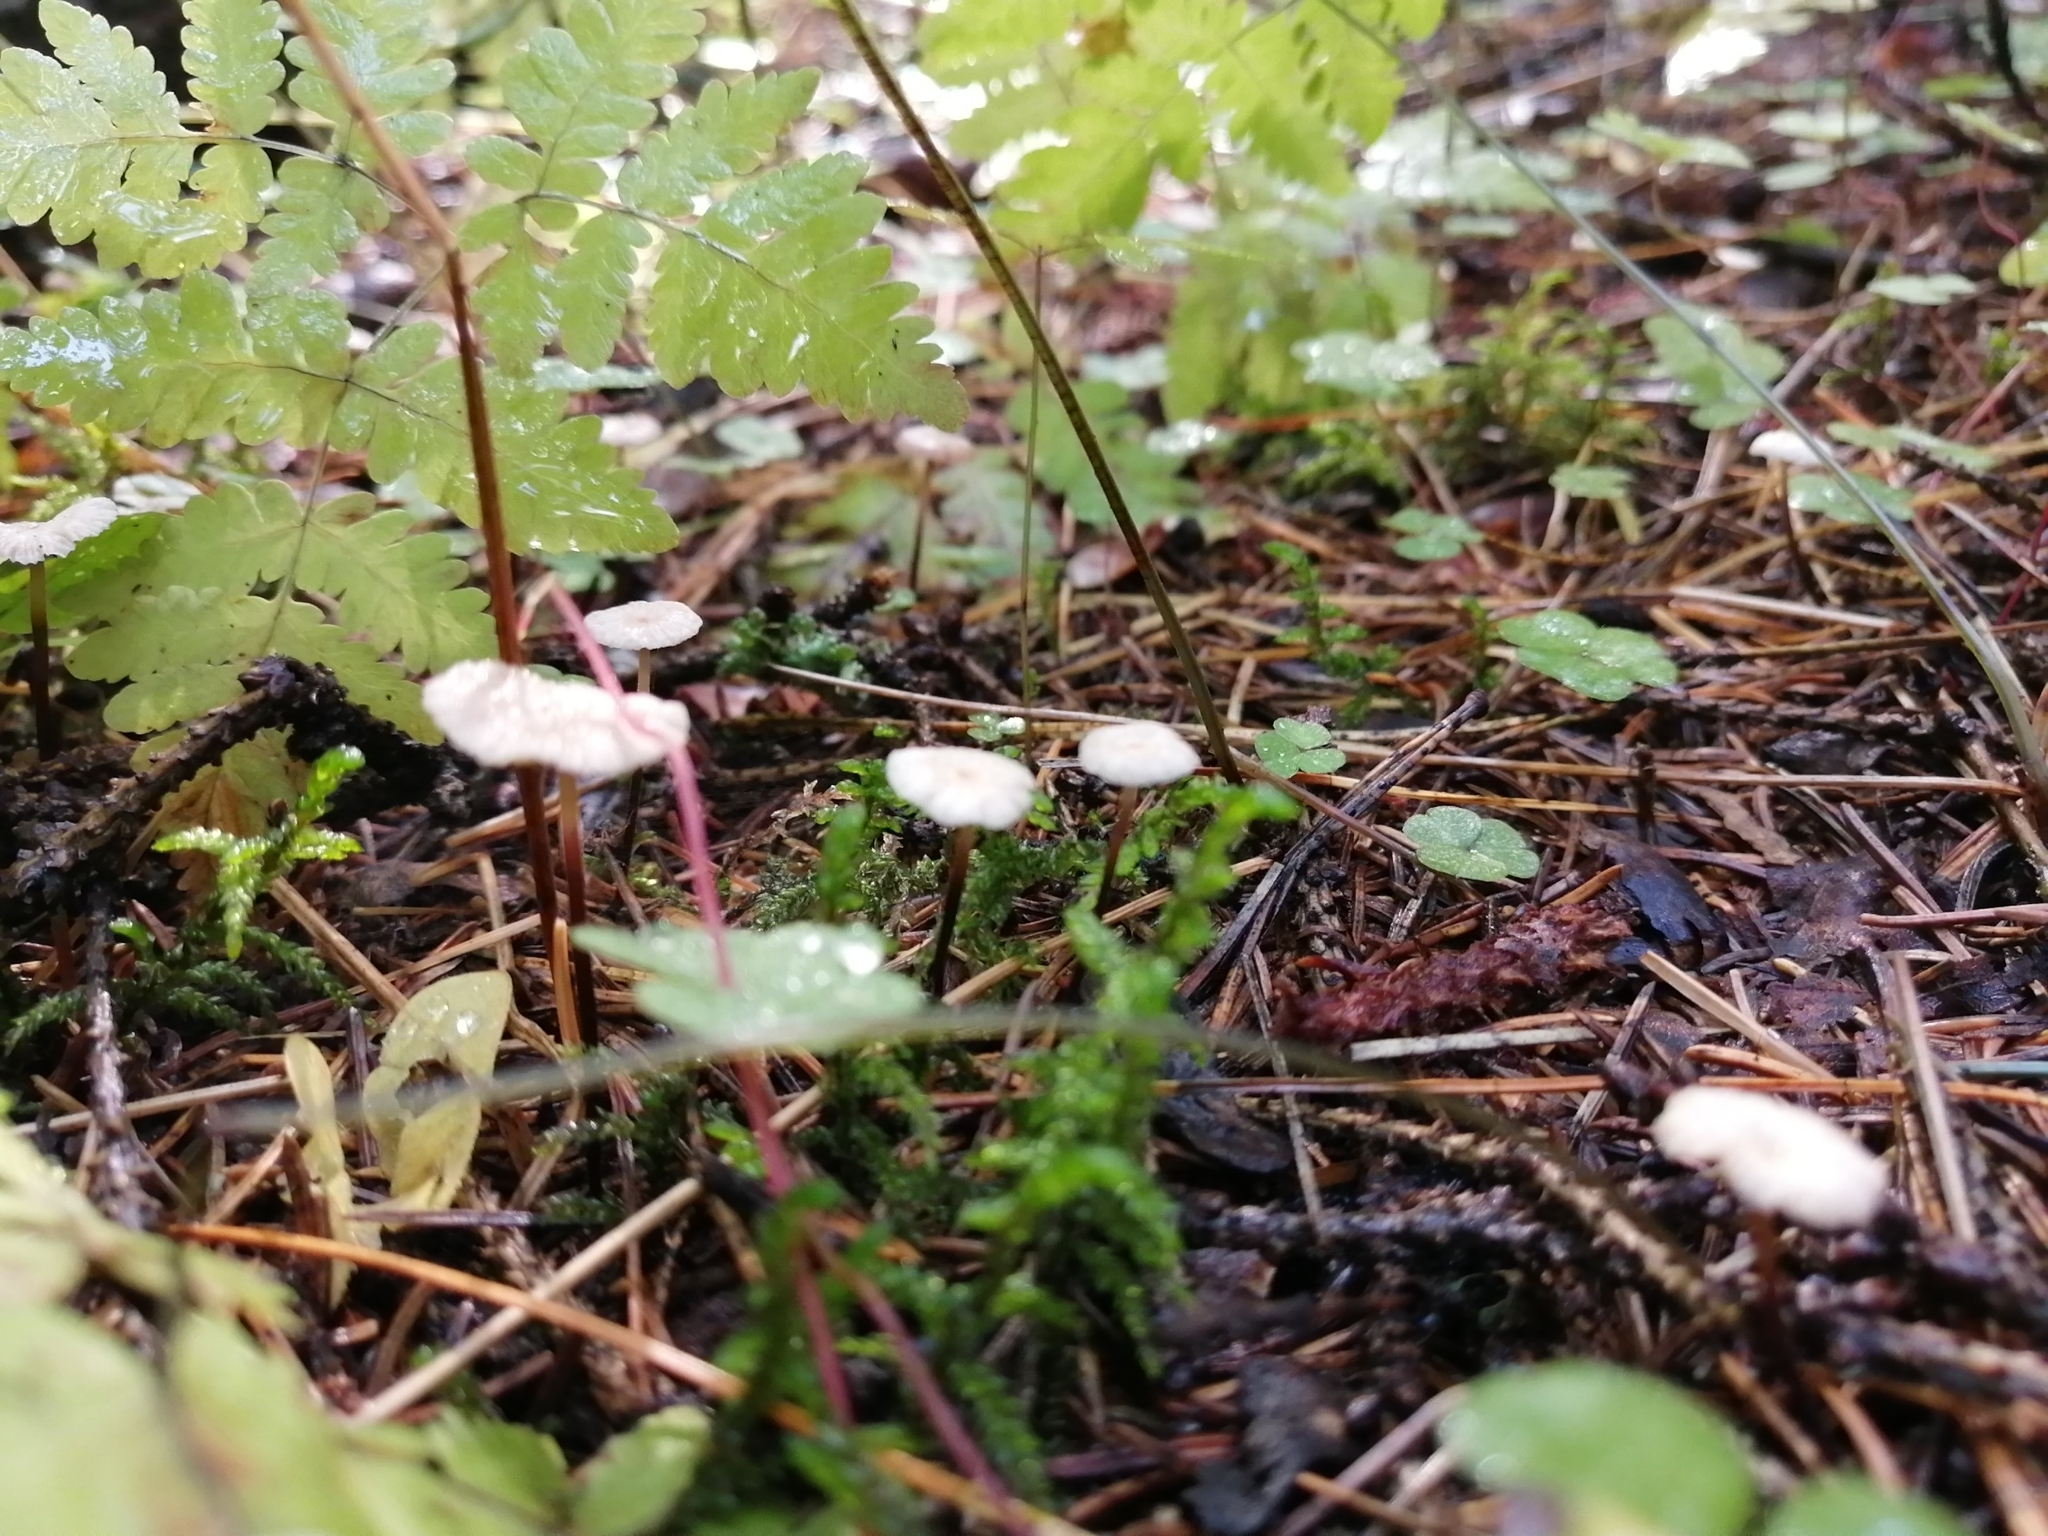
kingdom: Fungi
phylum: Basidiomycota
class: Agaricomycetes
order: Agaricales
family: Physalacriaceae
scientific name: Physalacriaceae
